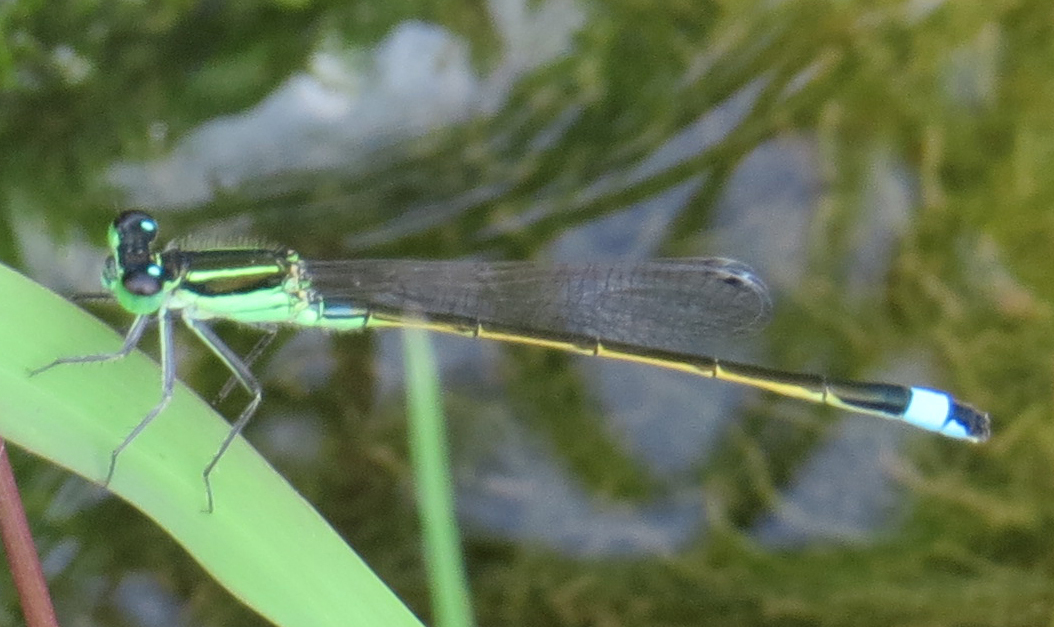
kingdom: Animalia
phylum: Arthropoda
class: Insecta
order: Odonata
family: Coenagrionidae
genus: Ischnura
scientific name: Ischnura ramburii
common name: Rambur's forktail
